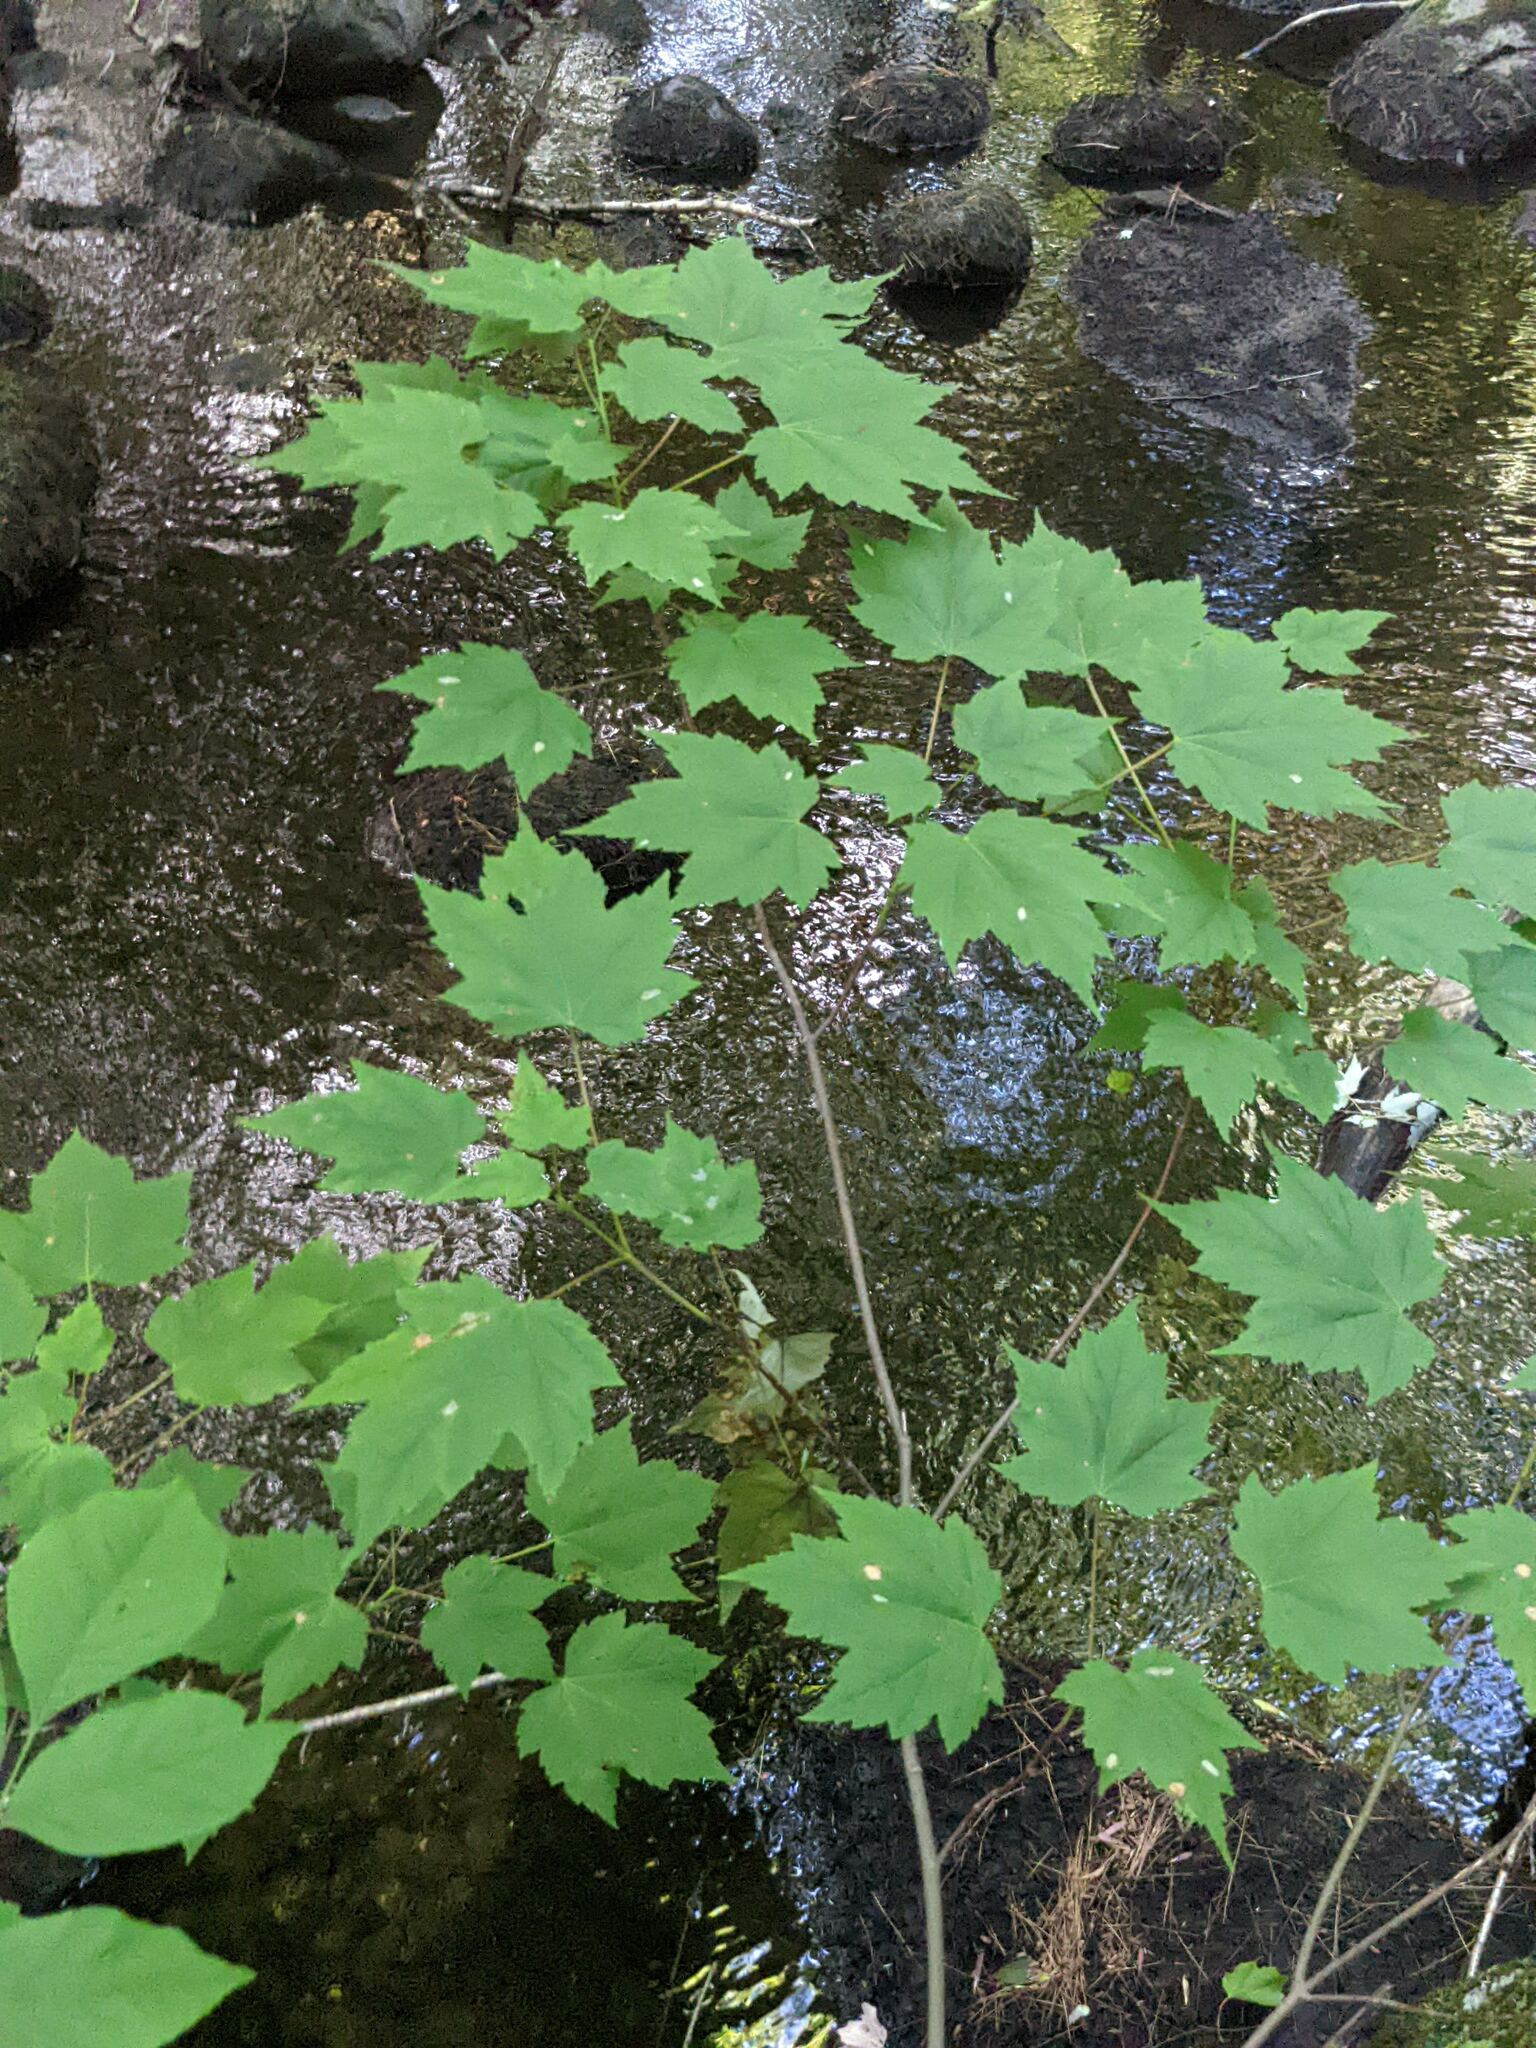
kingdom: Plantae
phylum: Tracheophyta
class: Magnoliopsida
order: Sapindales
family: Sapindaceae
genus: Acer
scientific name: Acer rubrum
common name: Red maple
